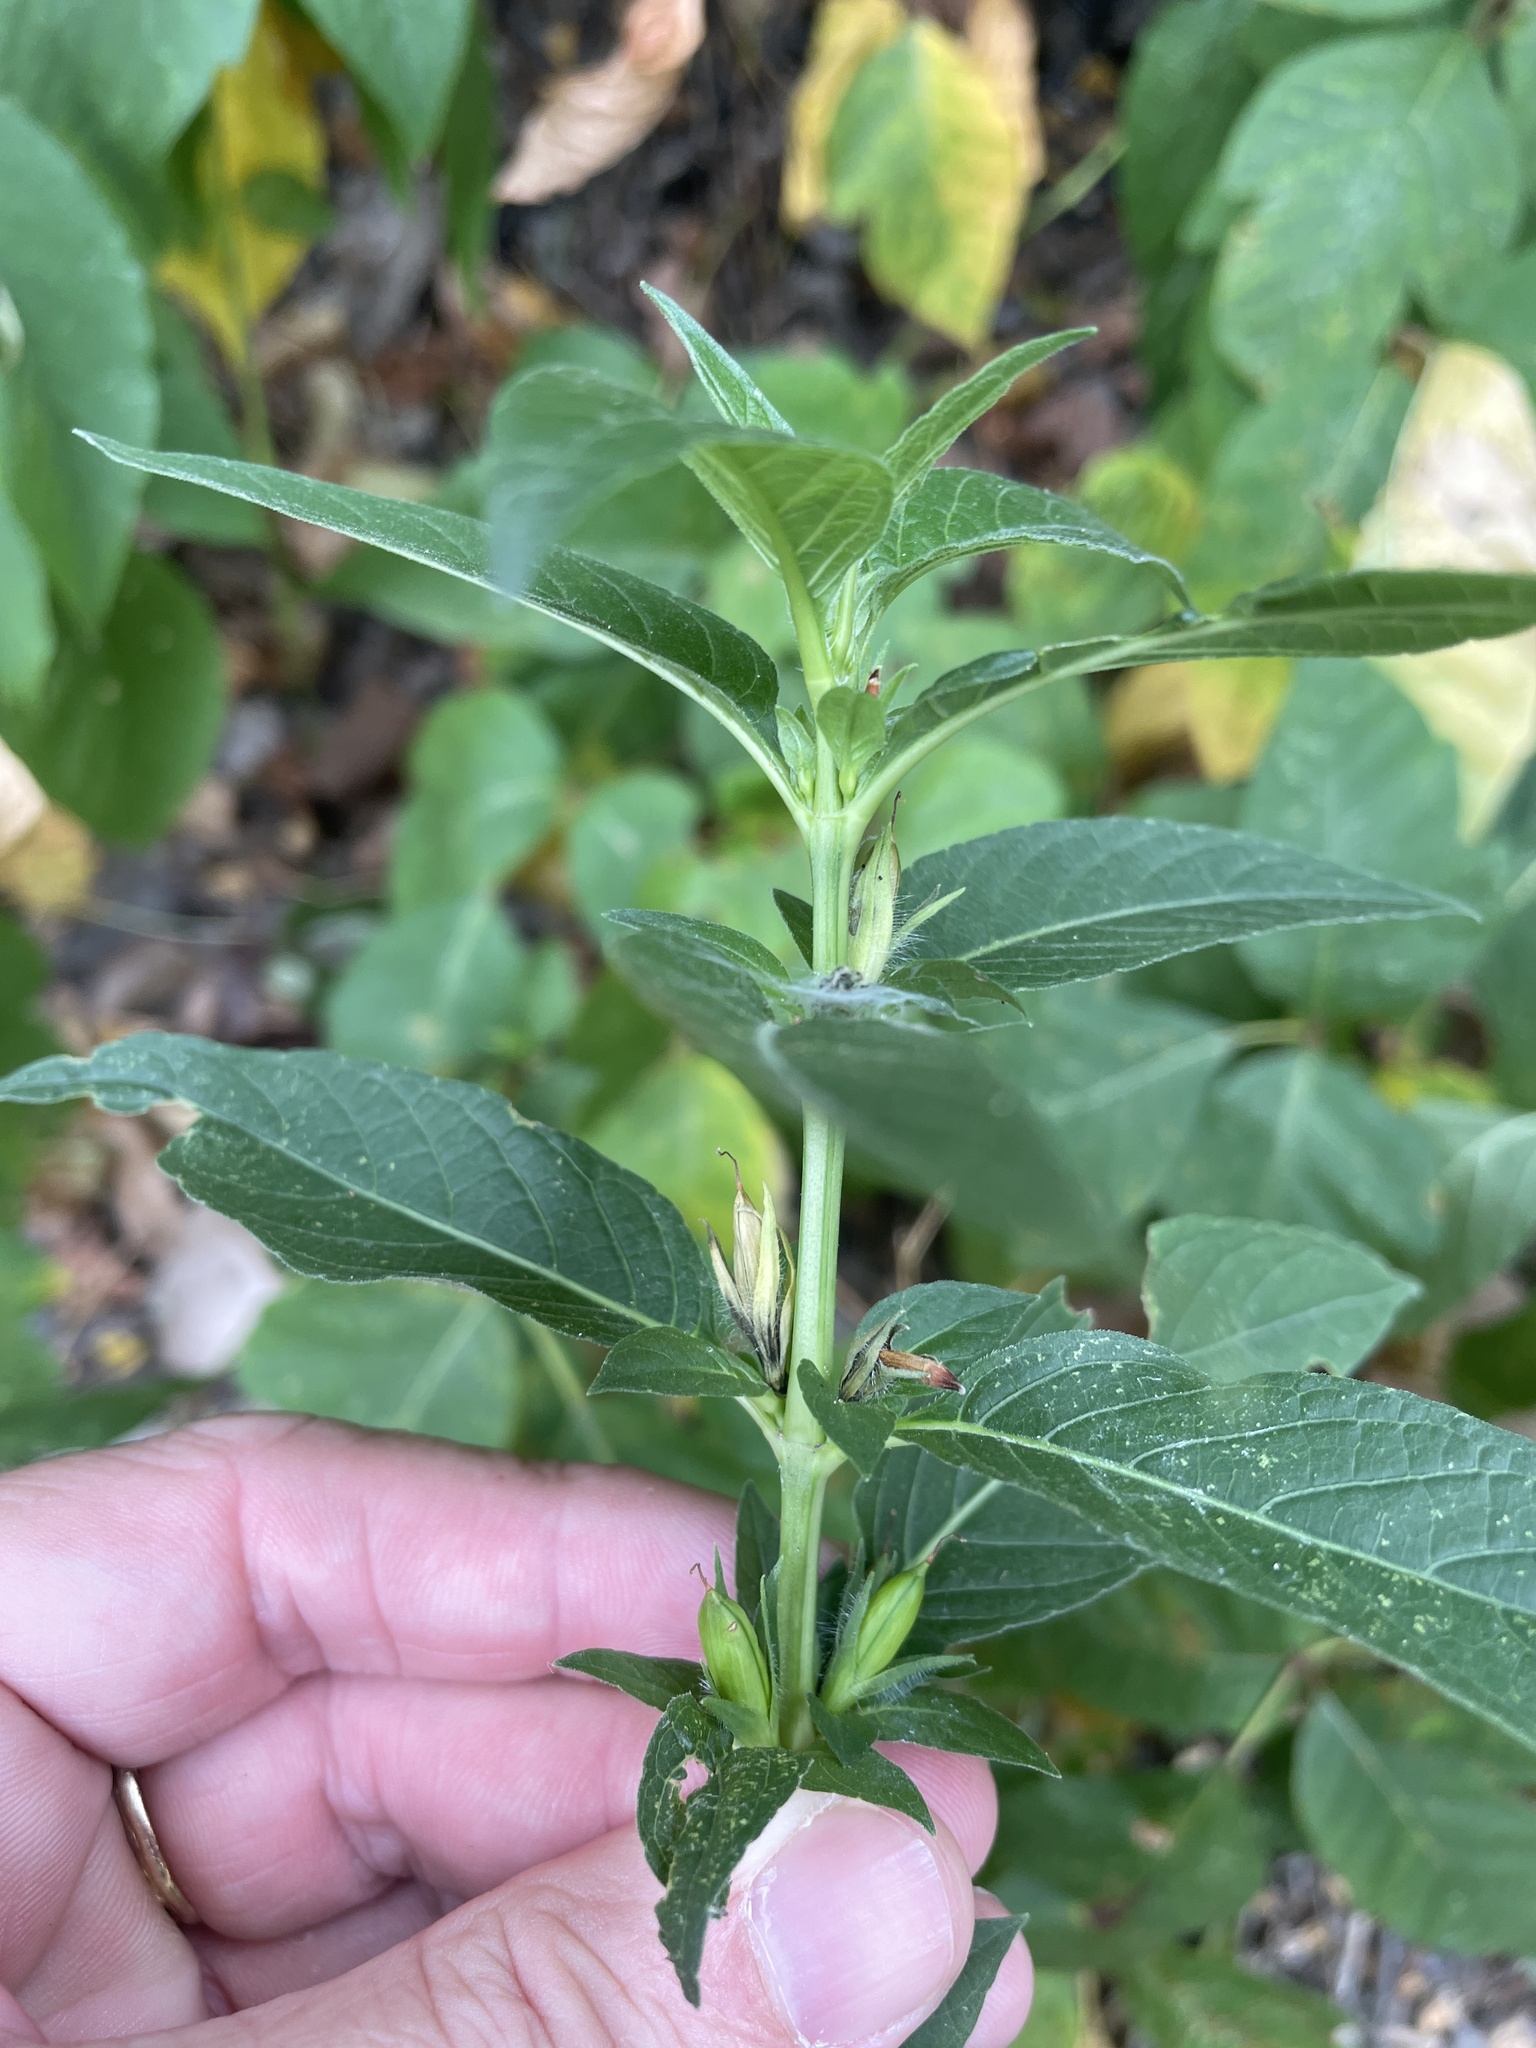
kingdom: Plantae
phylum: Tracheophyta
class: Magnoliopsida
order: Lamiales
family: Acanthaceae
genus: Ruellia
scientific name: Ruellia strepens
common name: Limestone wild petunia
